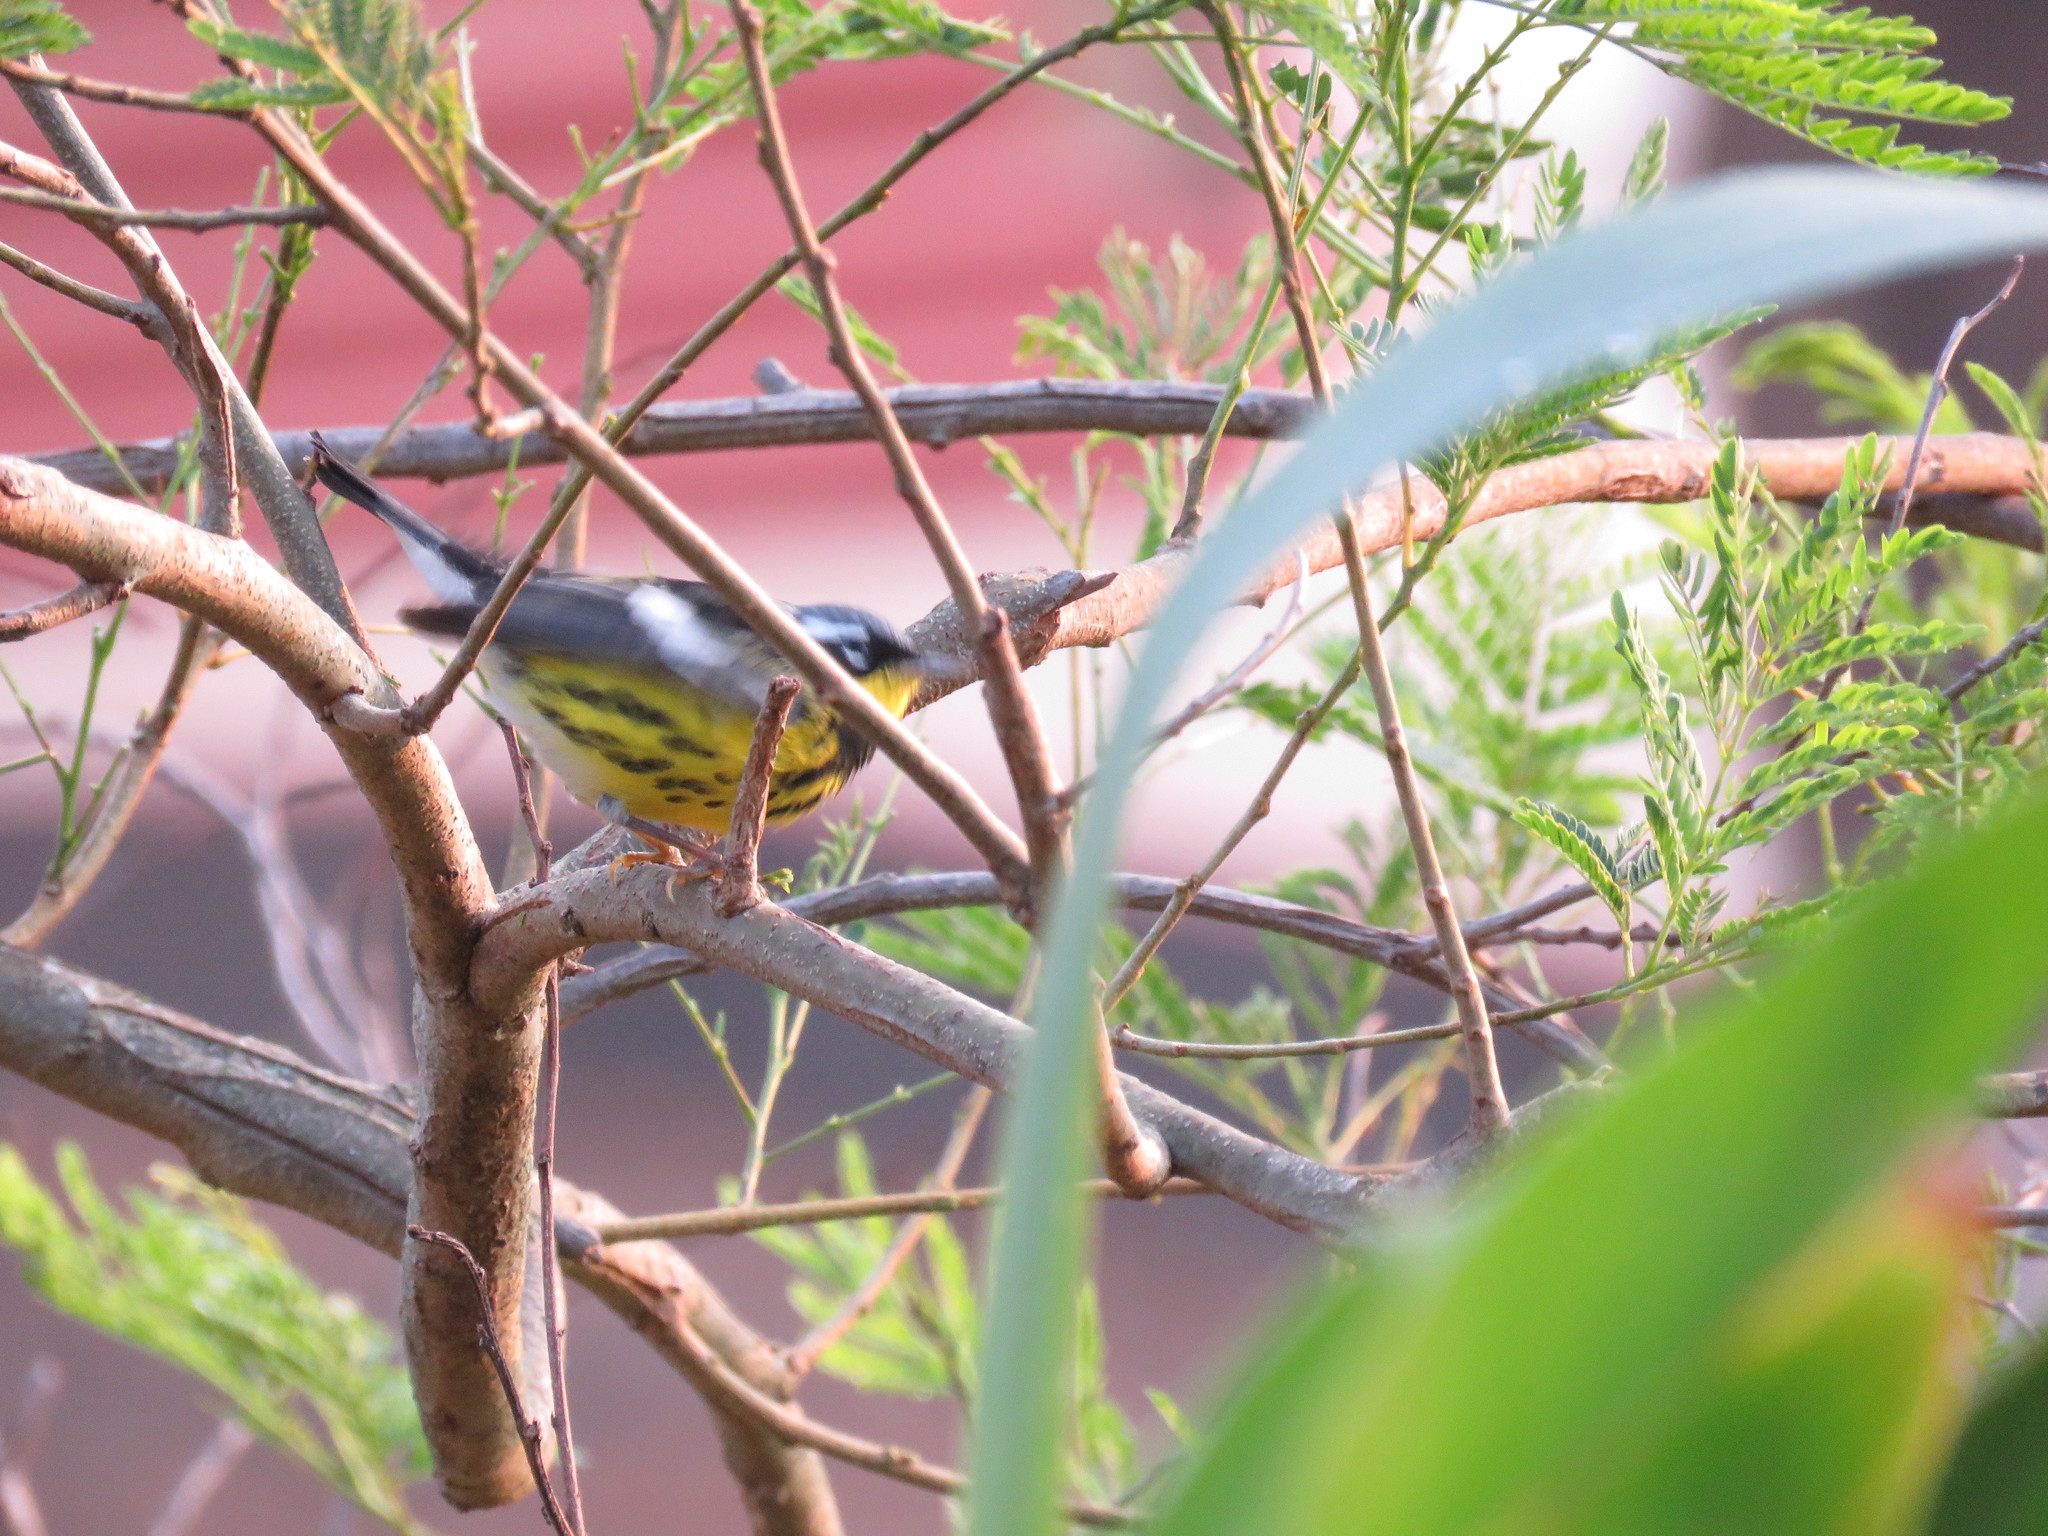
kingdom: Animalia
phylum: Chordata
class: Aves
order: Passeriformes
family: Parulidae
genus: Setophaga
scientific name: Setophaga magnolia
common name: Magnolia warbler
